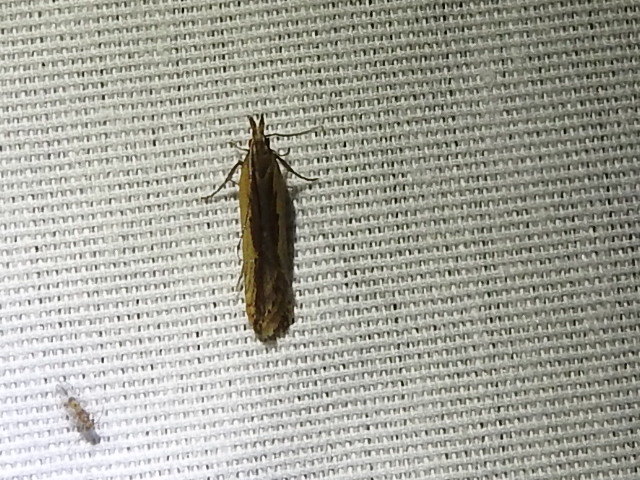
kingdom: Animalia
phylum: Arthropoda
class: Insecta
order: Lepidoptera
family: Gelechiidae
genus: Dichomeris
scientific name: Dichomeris ligulella
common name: Moth
